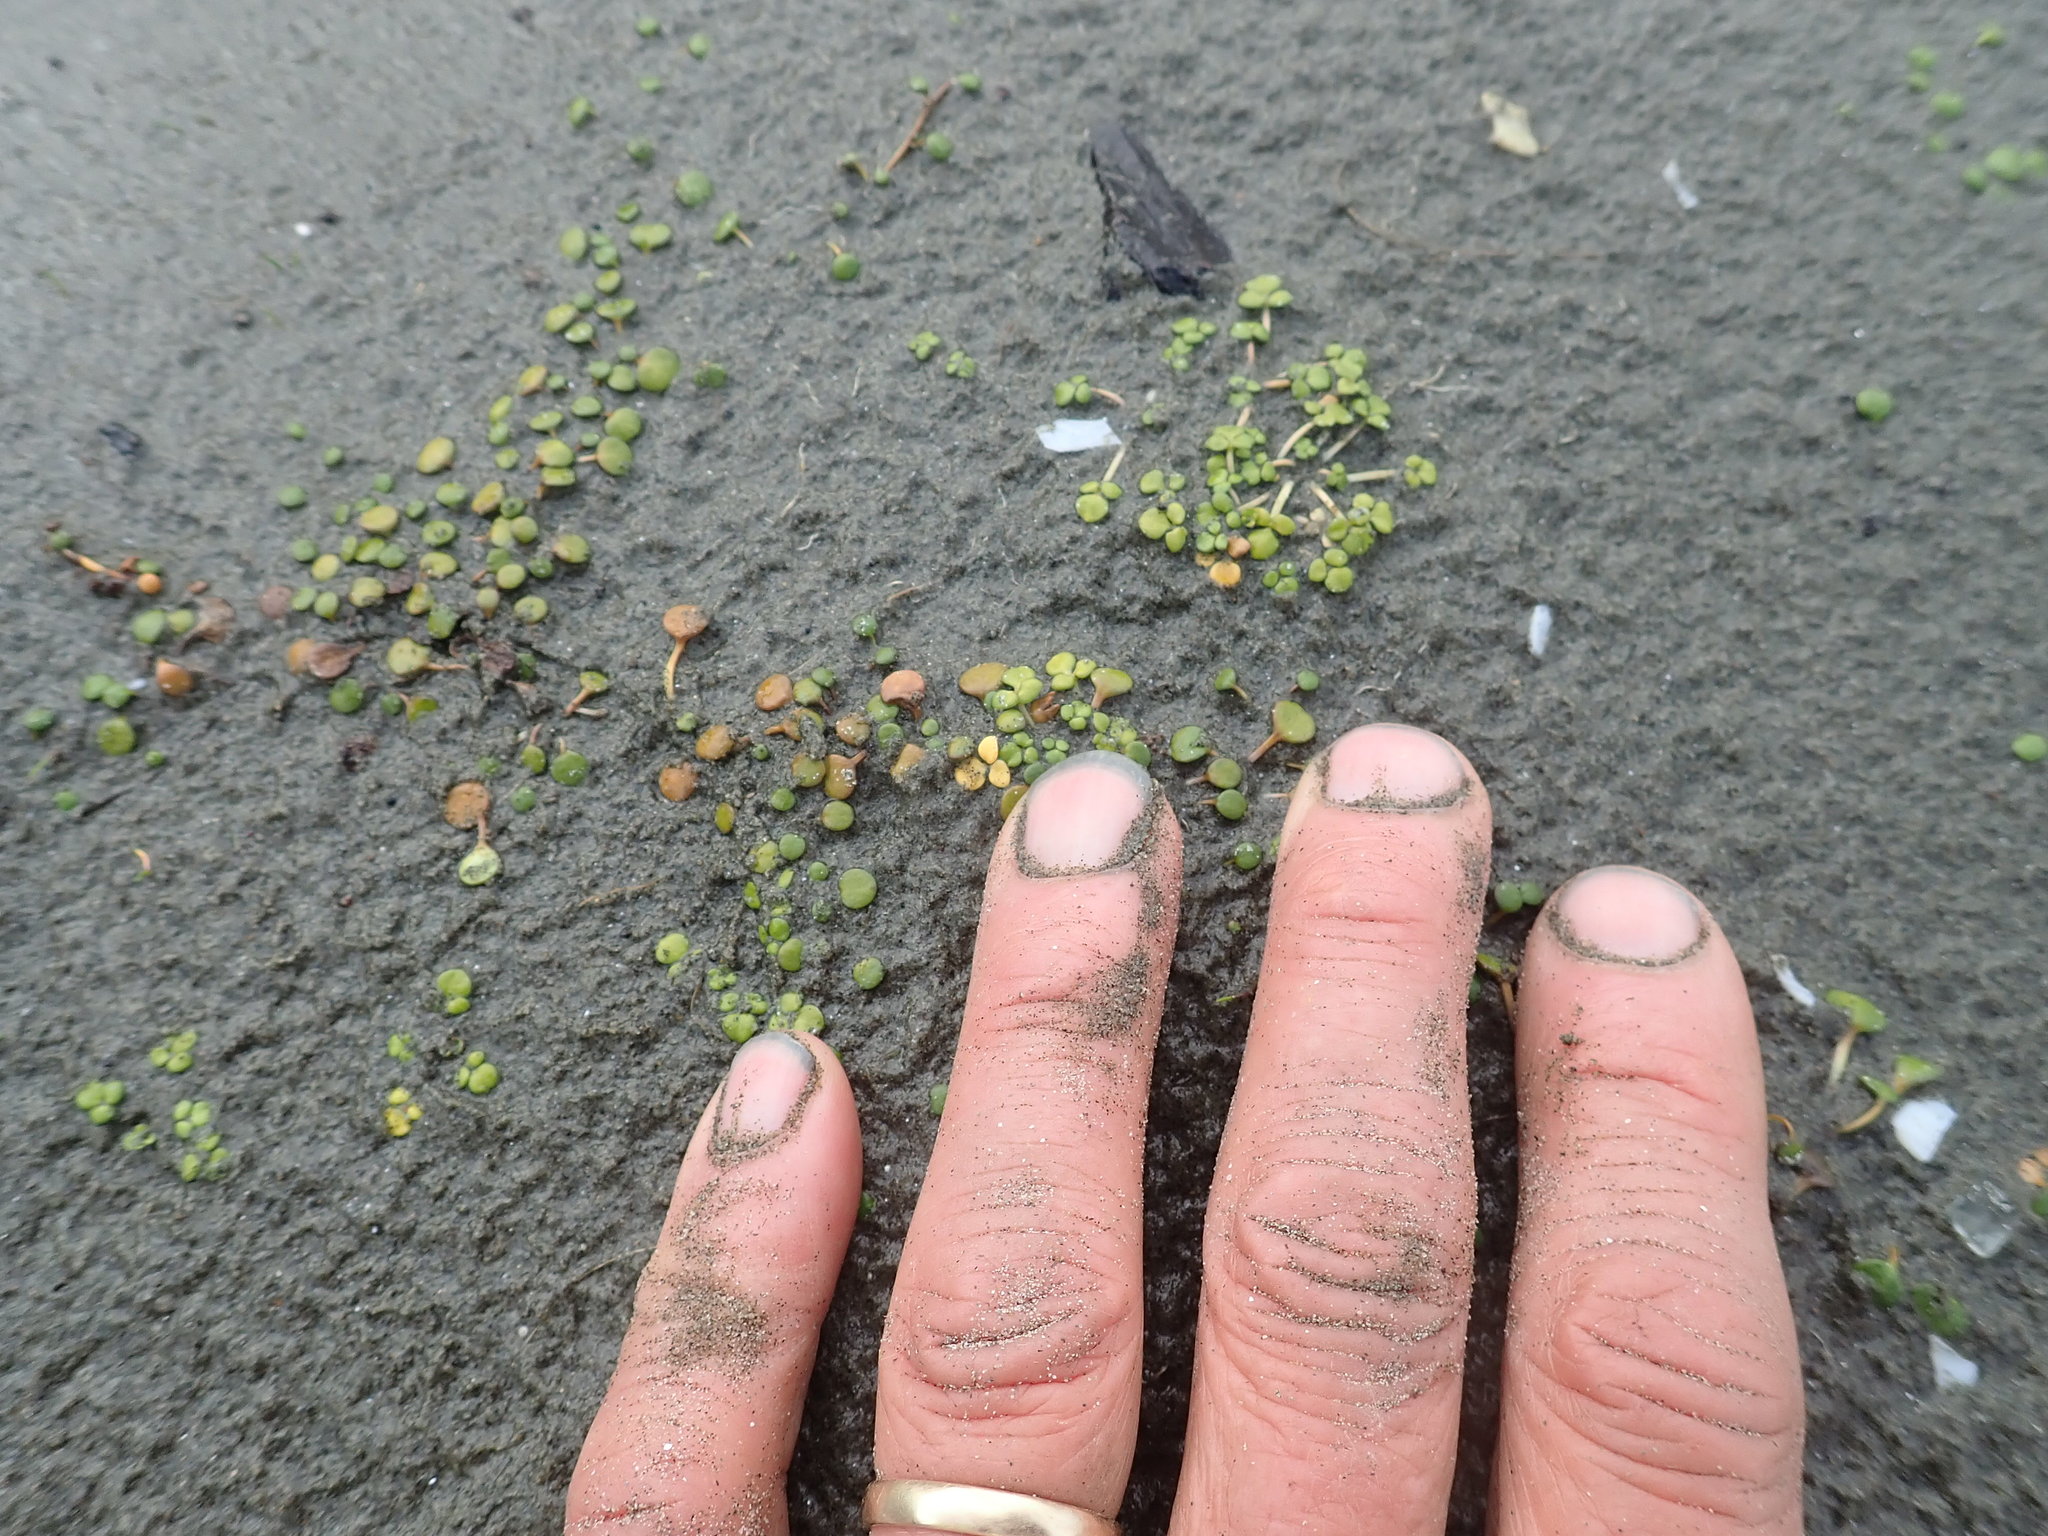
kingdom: Plantae
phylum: Tracheophyta
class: Magnoliopsida
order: Ranunculales
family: Ranunculaceae
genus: Ranunculus
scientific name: Ranunculus acaulis
